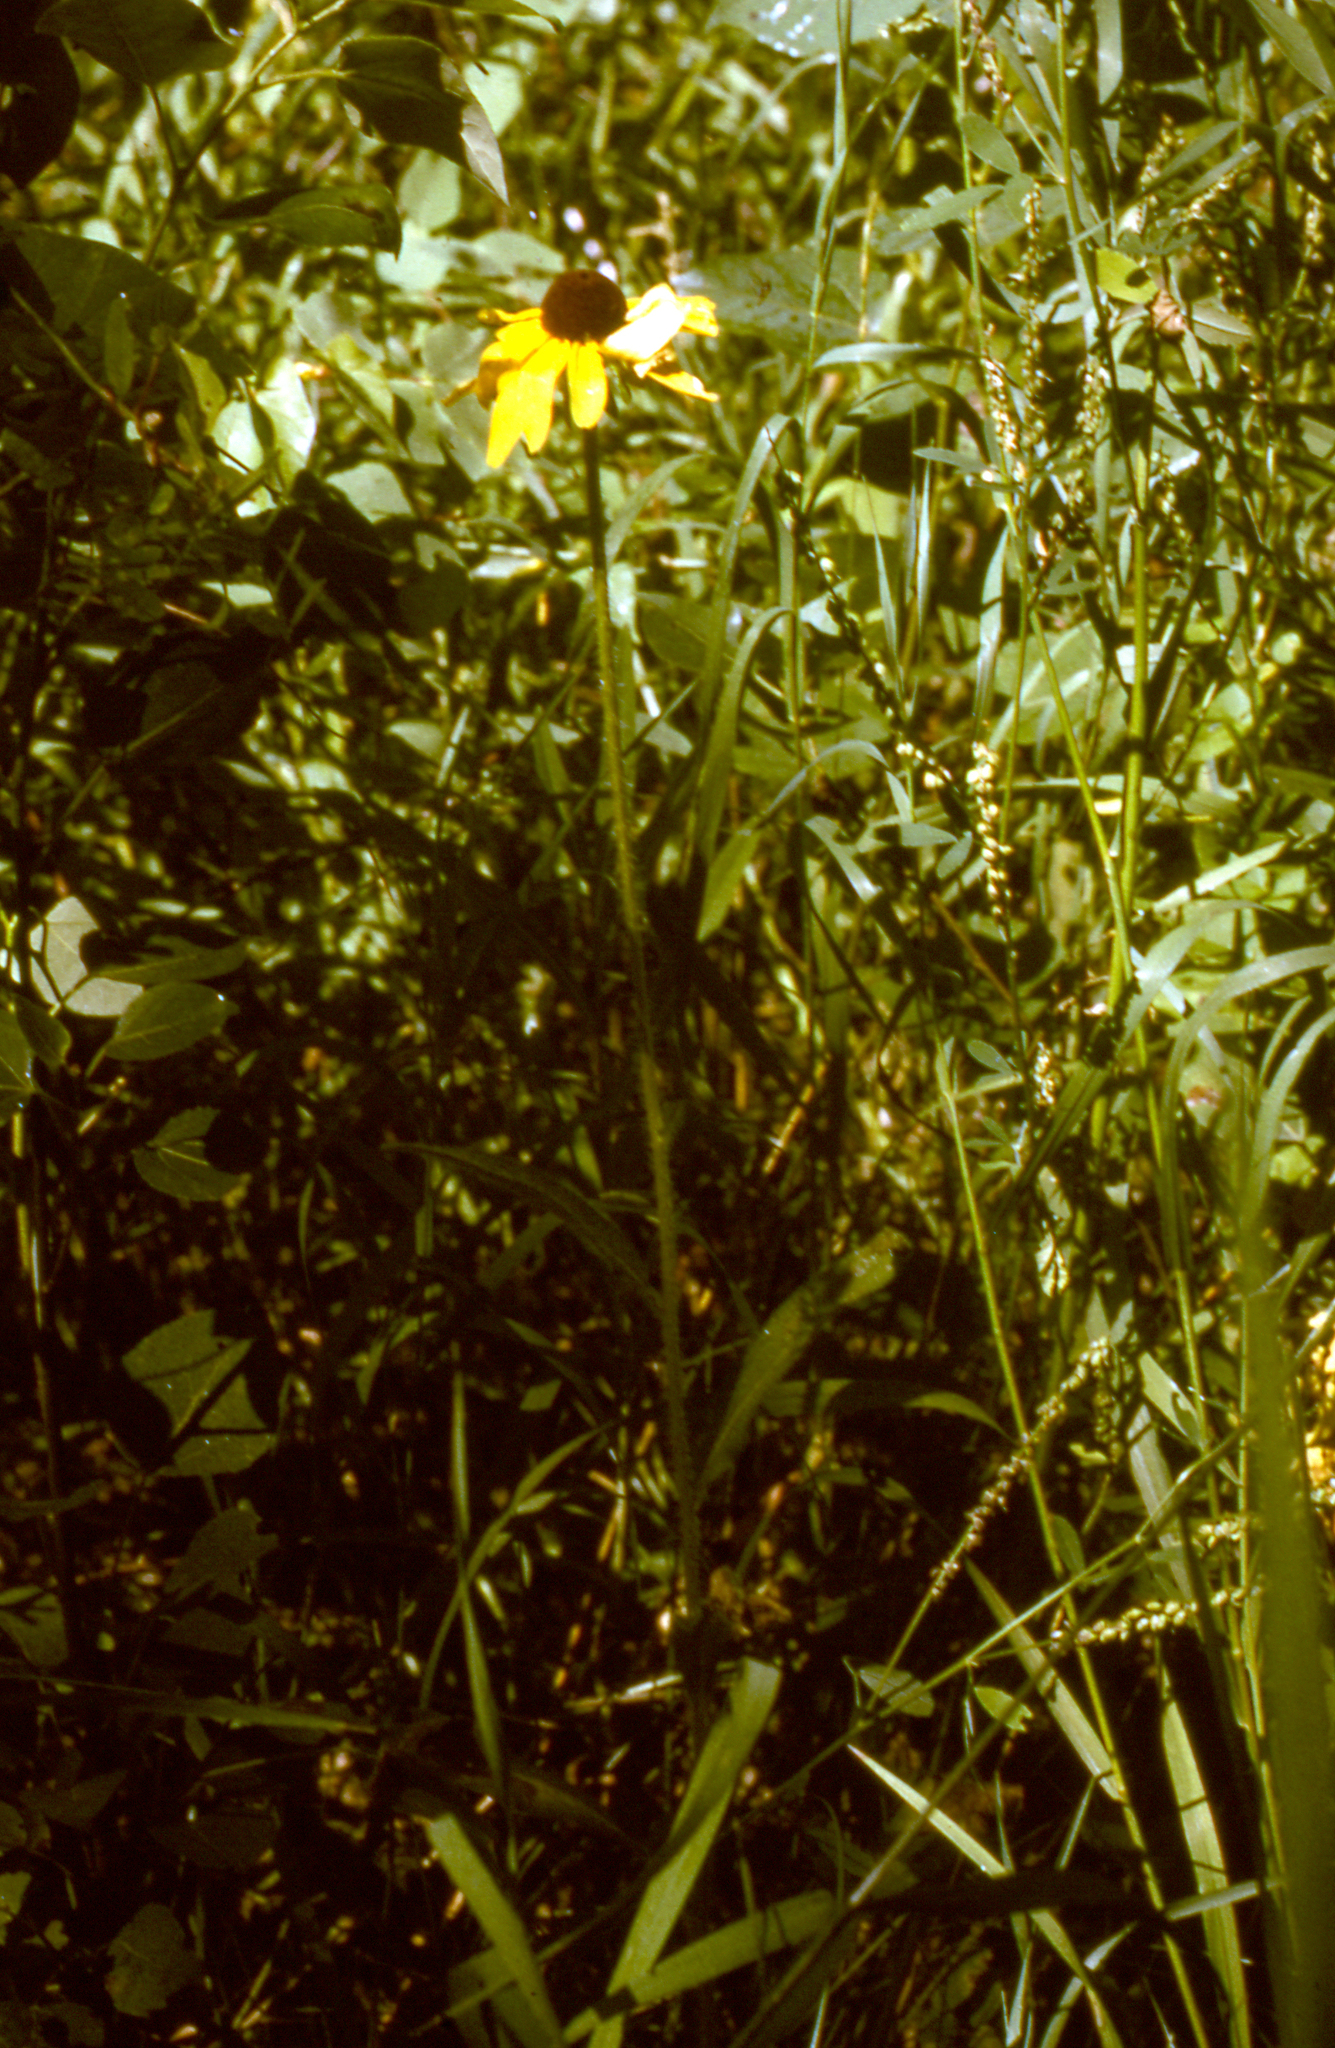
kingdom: Plantae
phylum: Tracheophyta
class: Magnoliopsida
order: Asterales
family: Asteraceae
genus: Rudbeckia
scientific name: Rudbeckia hirta
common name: Black-eyed-susan
